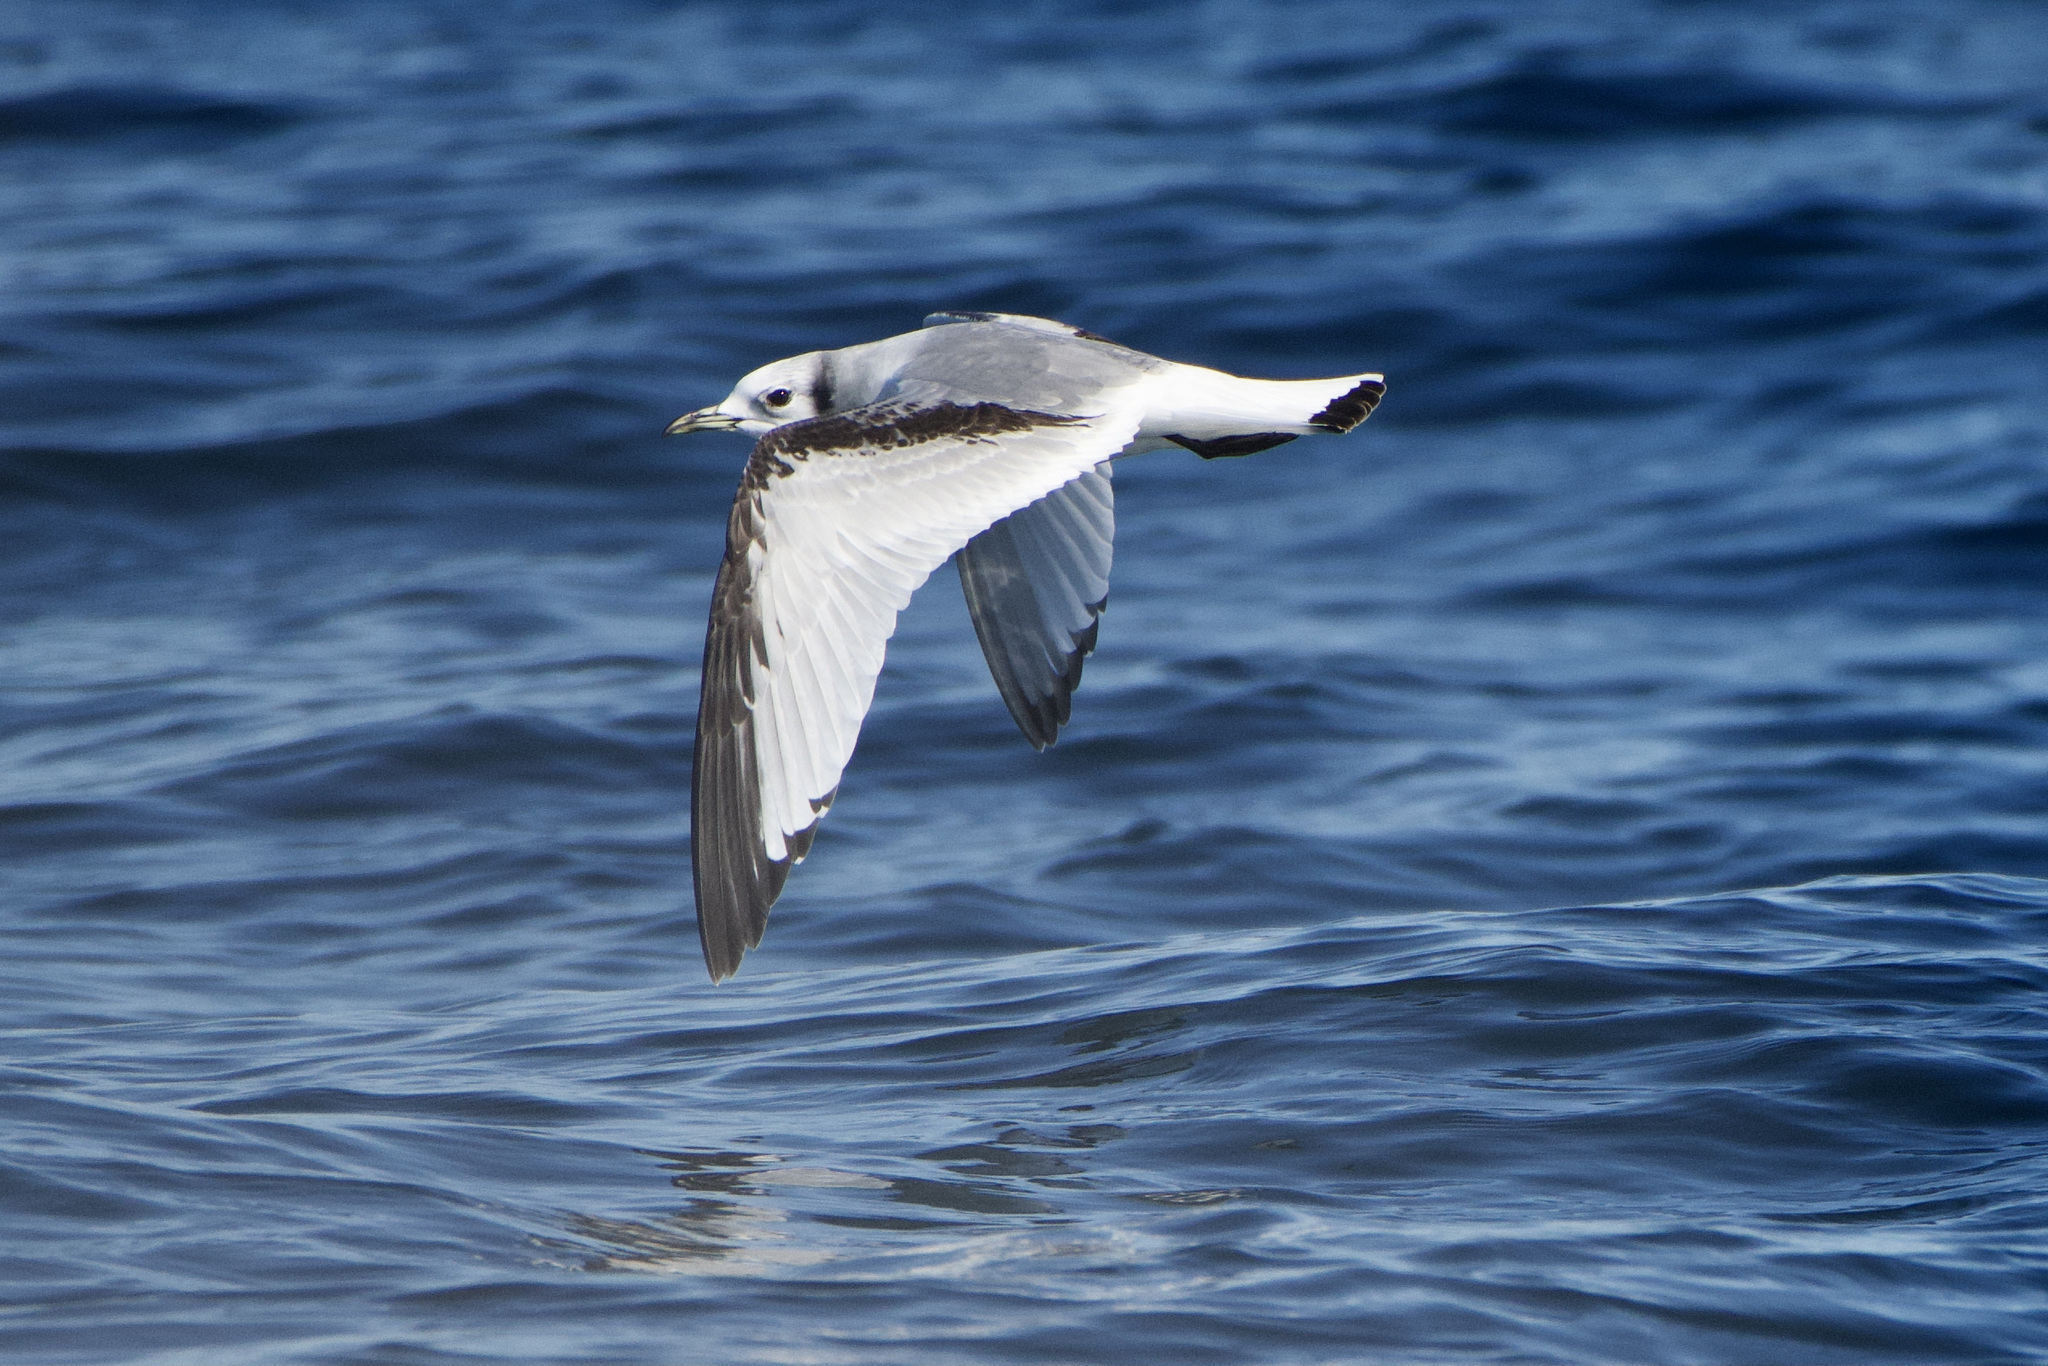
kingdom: Animalia
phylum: Chordata
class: Aves
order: Charadriiformes
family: Laridae
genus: Rissa
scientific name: Rissa tridactyla
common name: Black-legged kittiwake
